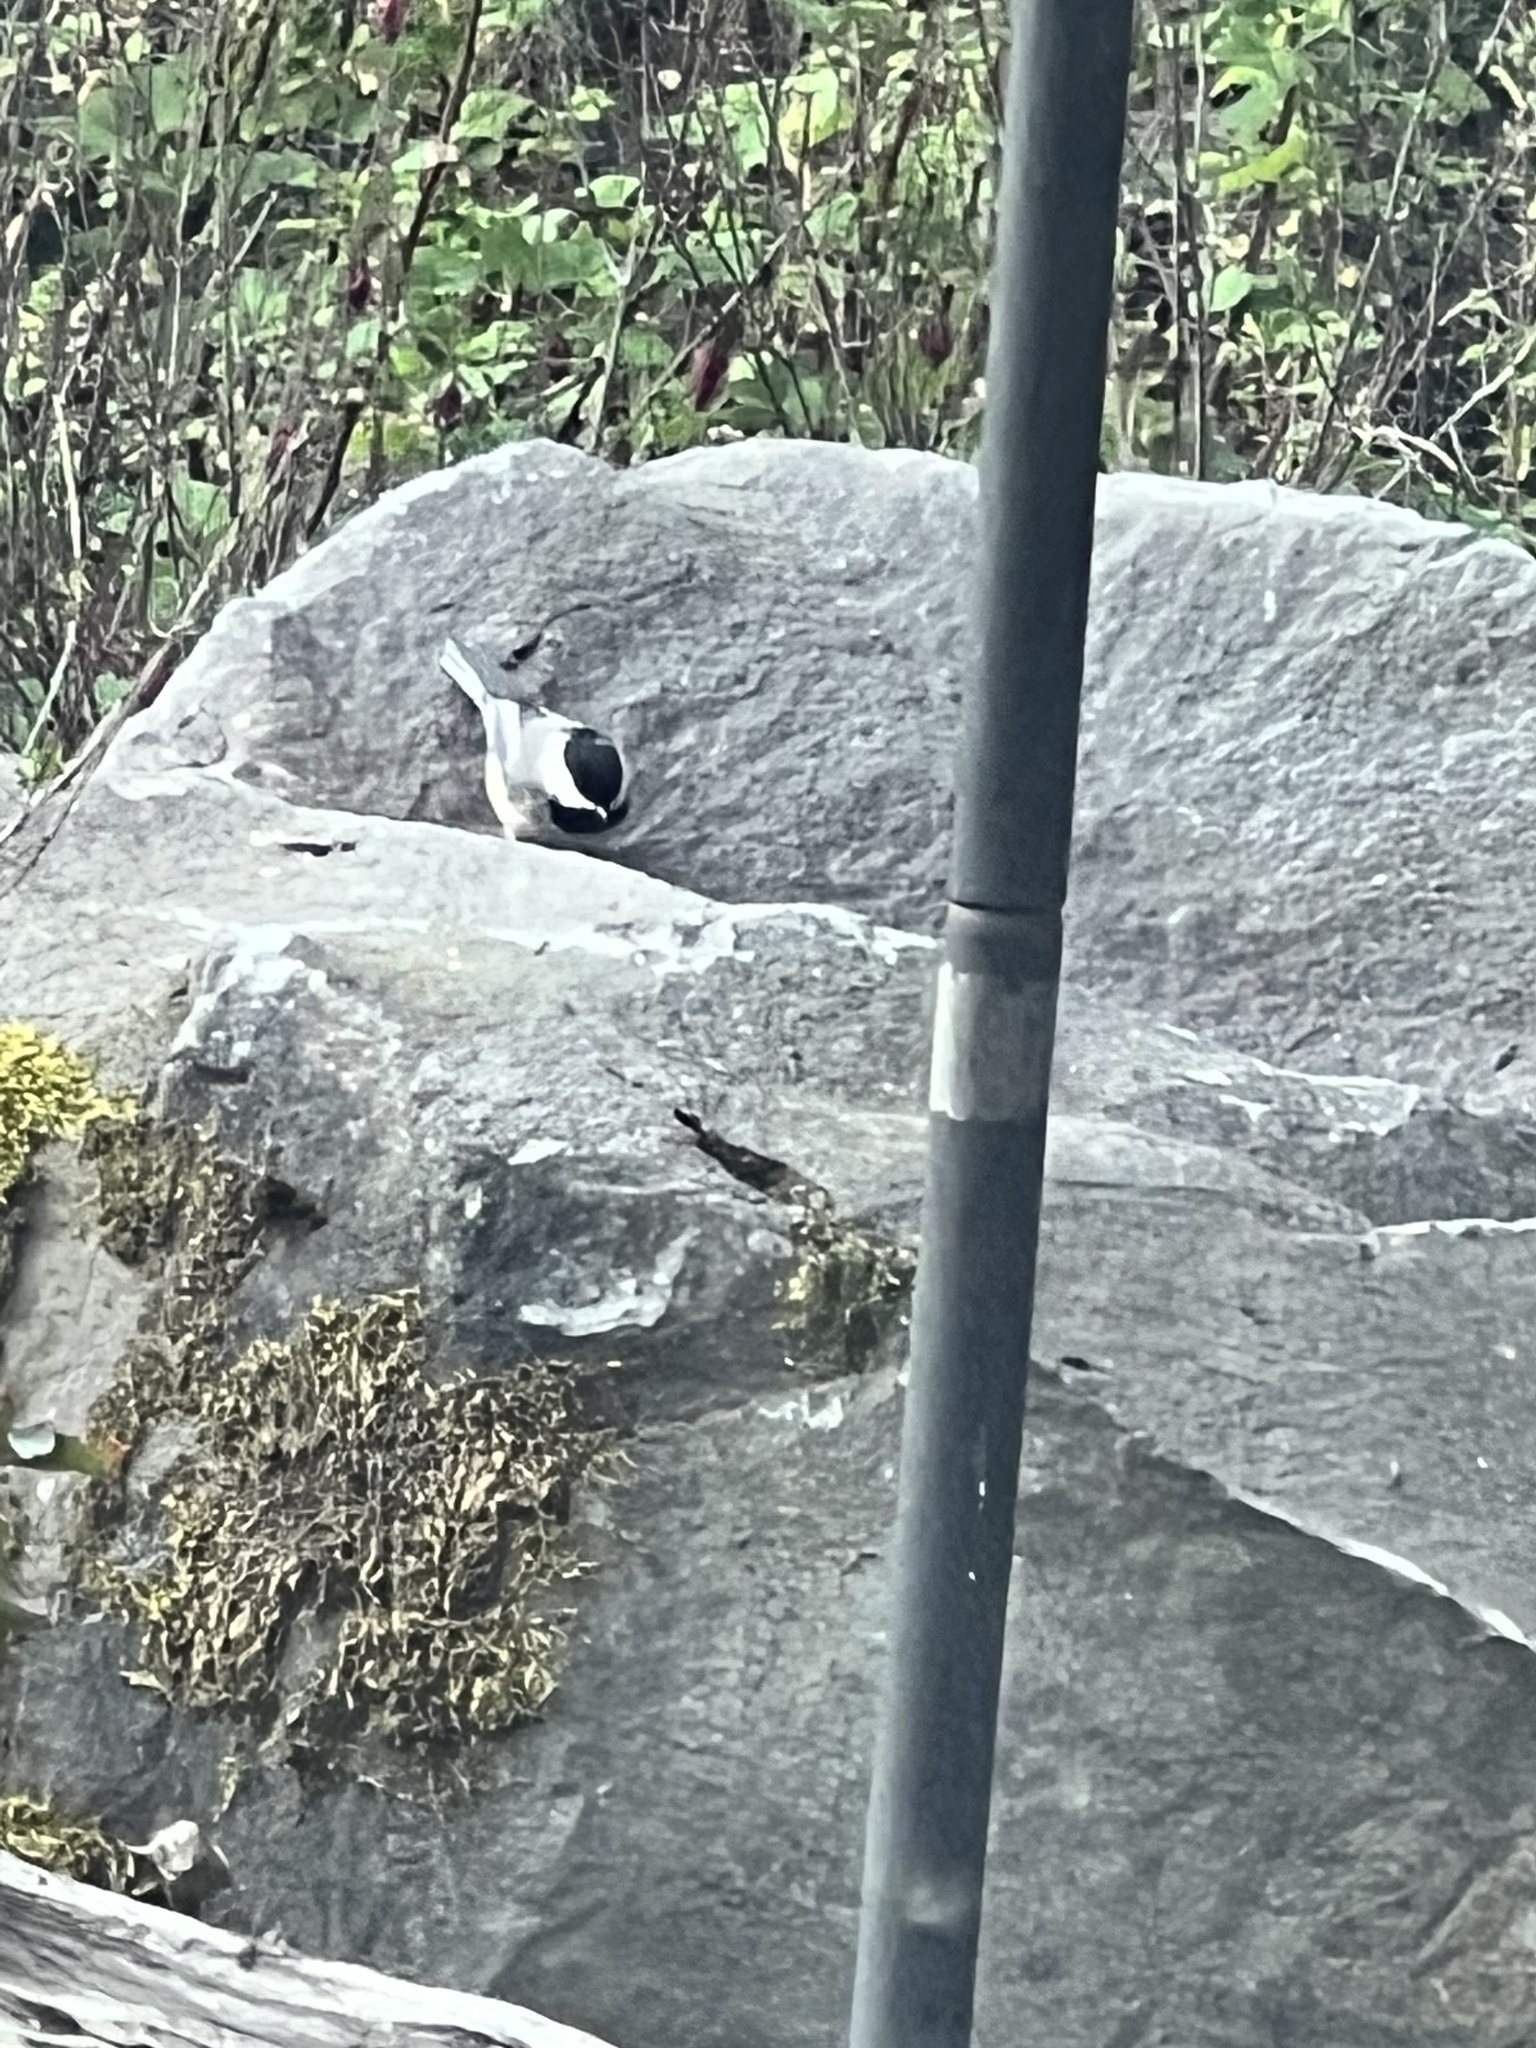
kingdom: Animalia
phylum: Chordata
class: Aves
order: Passeriformes
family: Paridae
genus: Poecile
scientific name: Poecile atricapillus
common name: Black-capped chickadee
